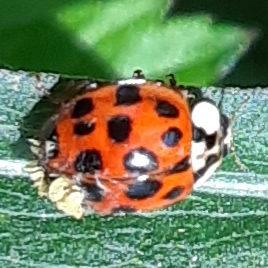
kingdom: Fungi
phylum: Ascomycota
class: Laboulbeniomycetes
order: Laboulbeniales
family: Laboulbeniaceae
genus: Hesperomyces
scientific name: Hesperomyces harmoniae
